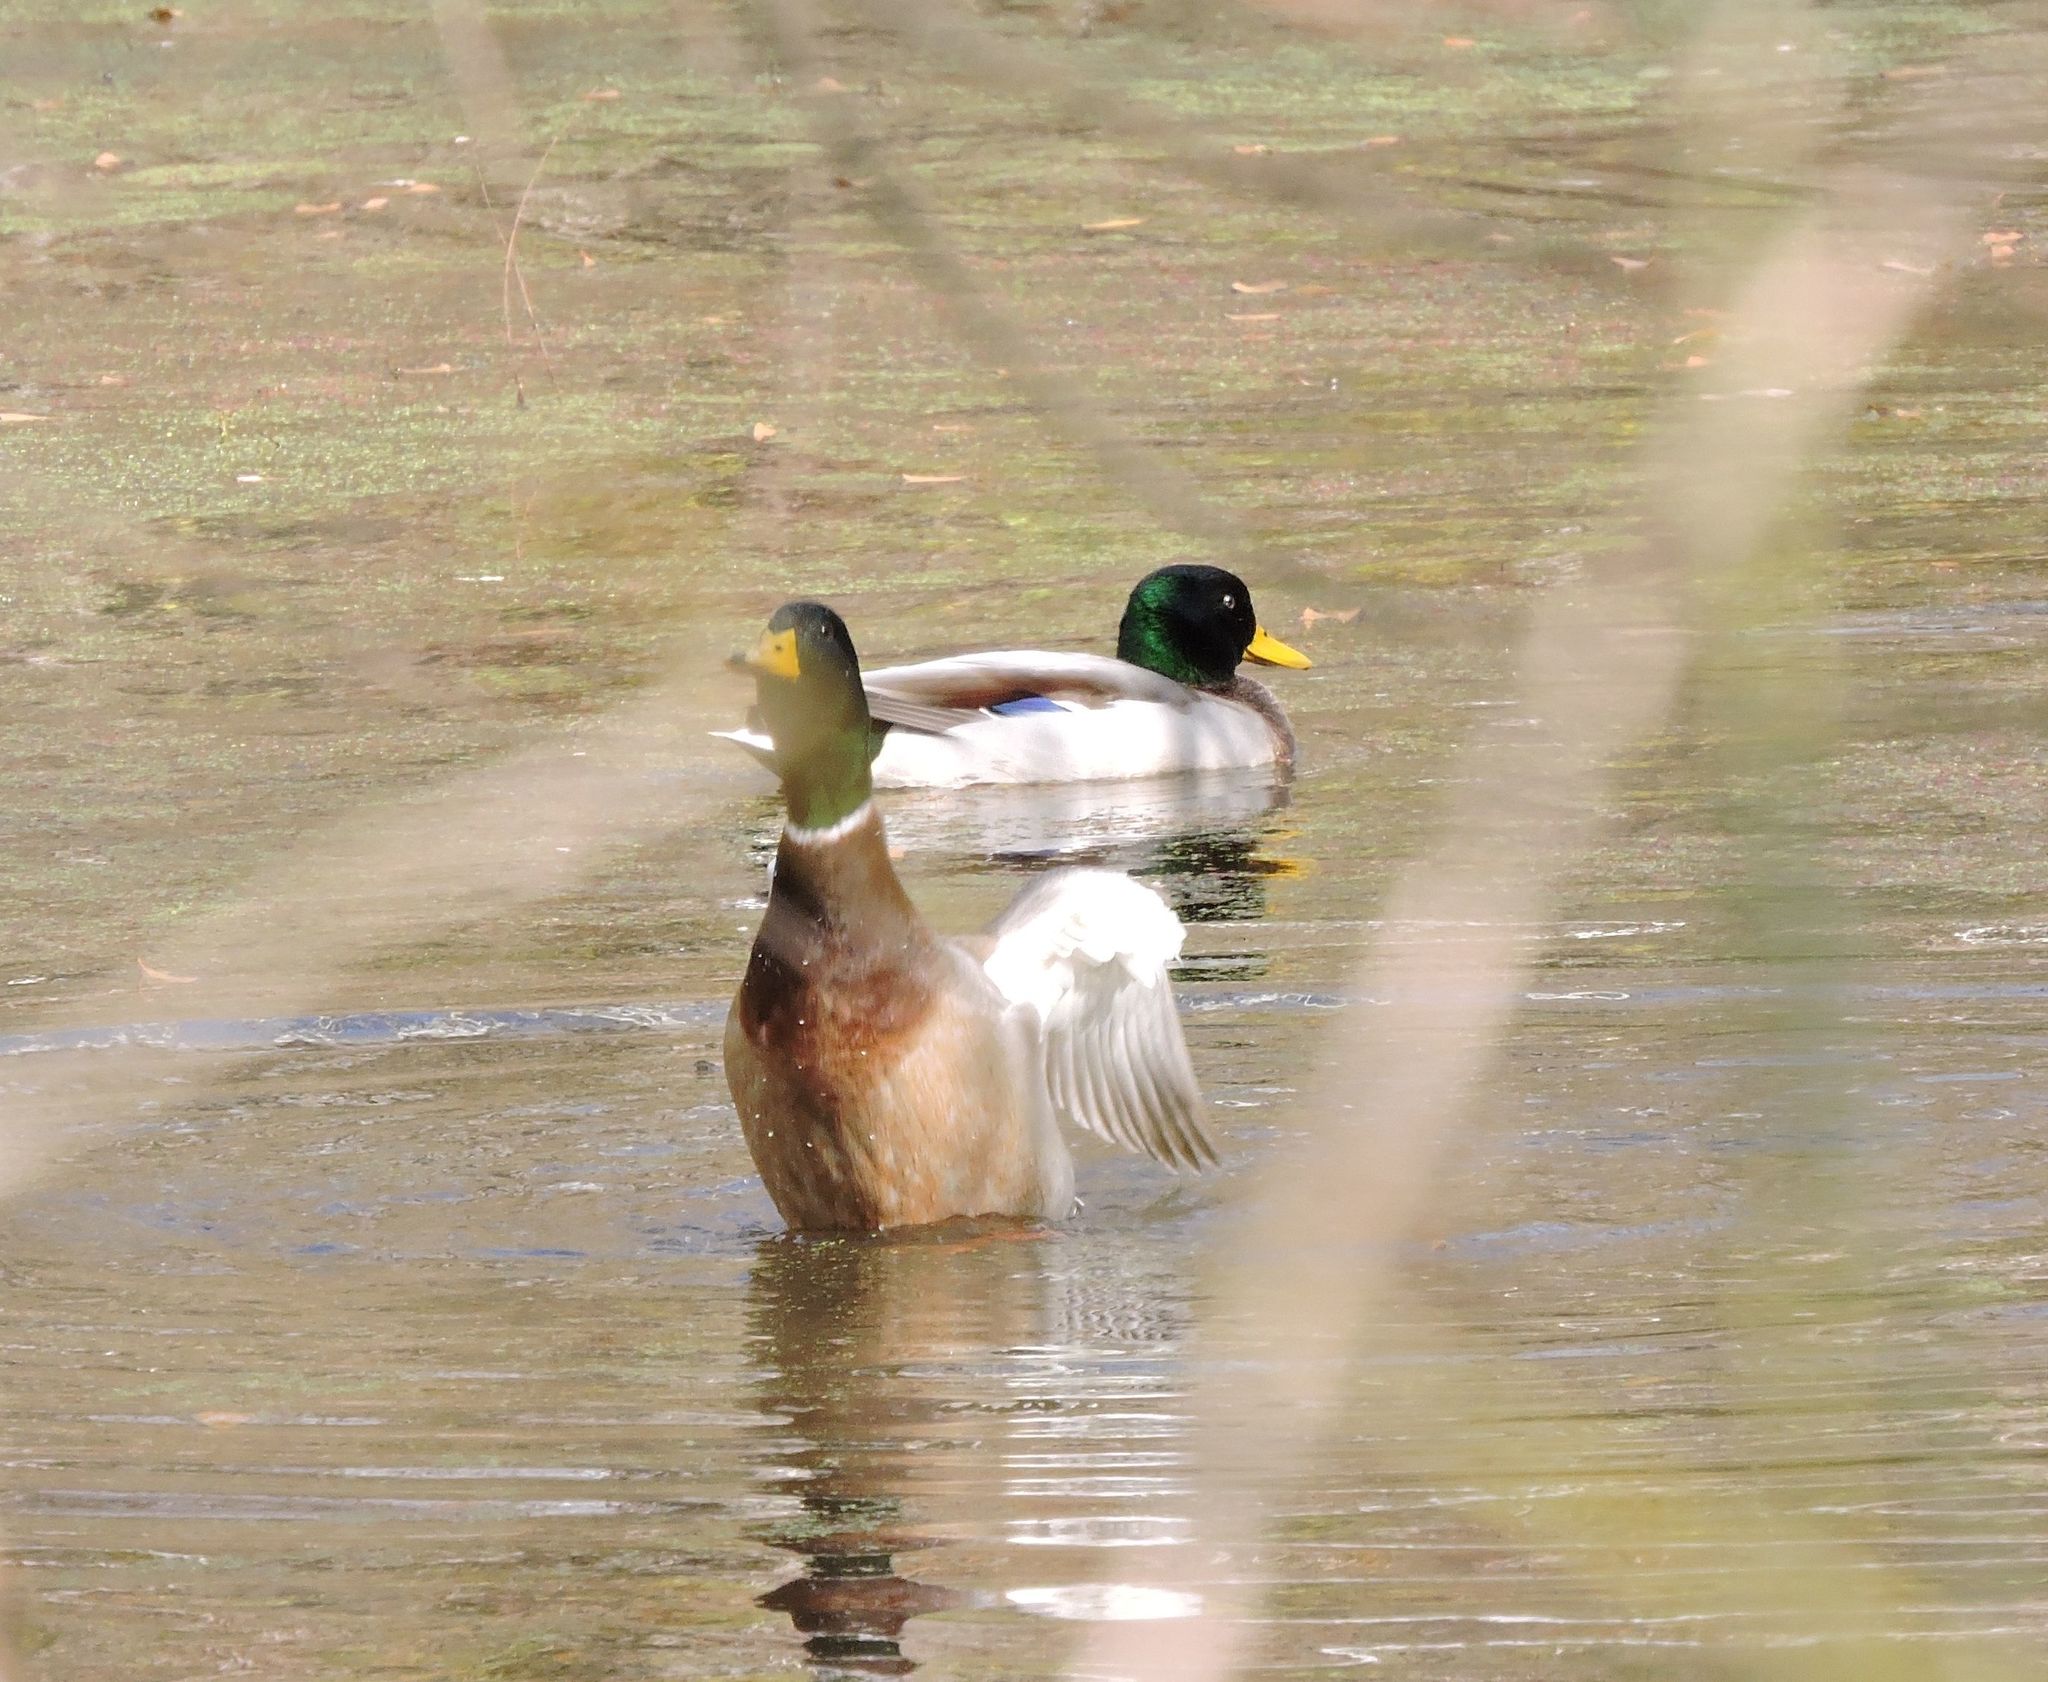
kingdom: Animalia
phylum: Chordata
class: Aves
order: Anseriformes
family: Anatidae
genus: Anas
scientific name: Anas platyrhynchos
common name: Mallard
